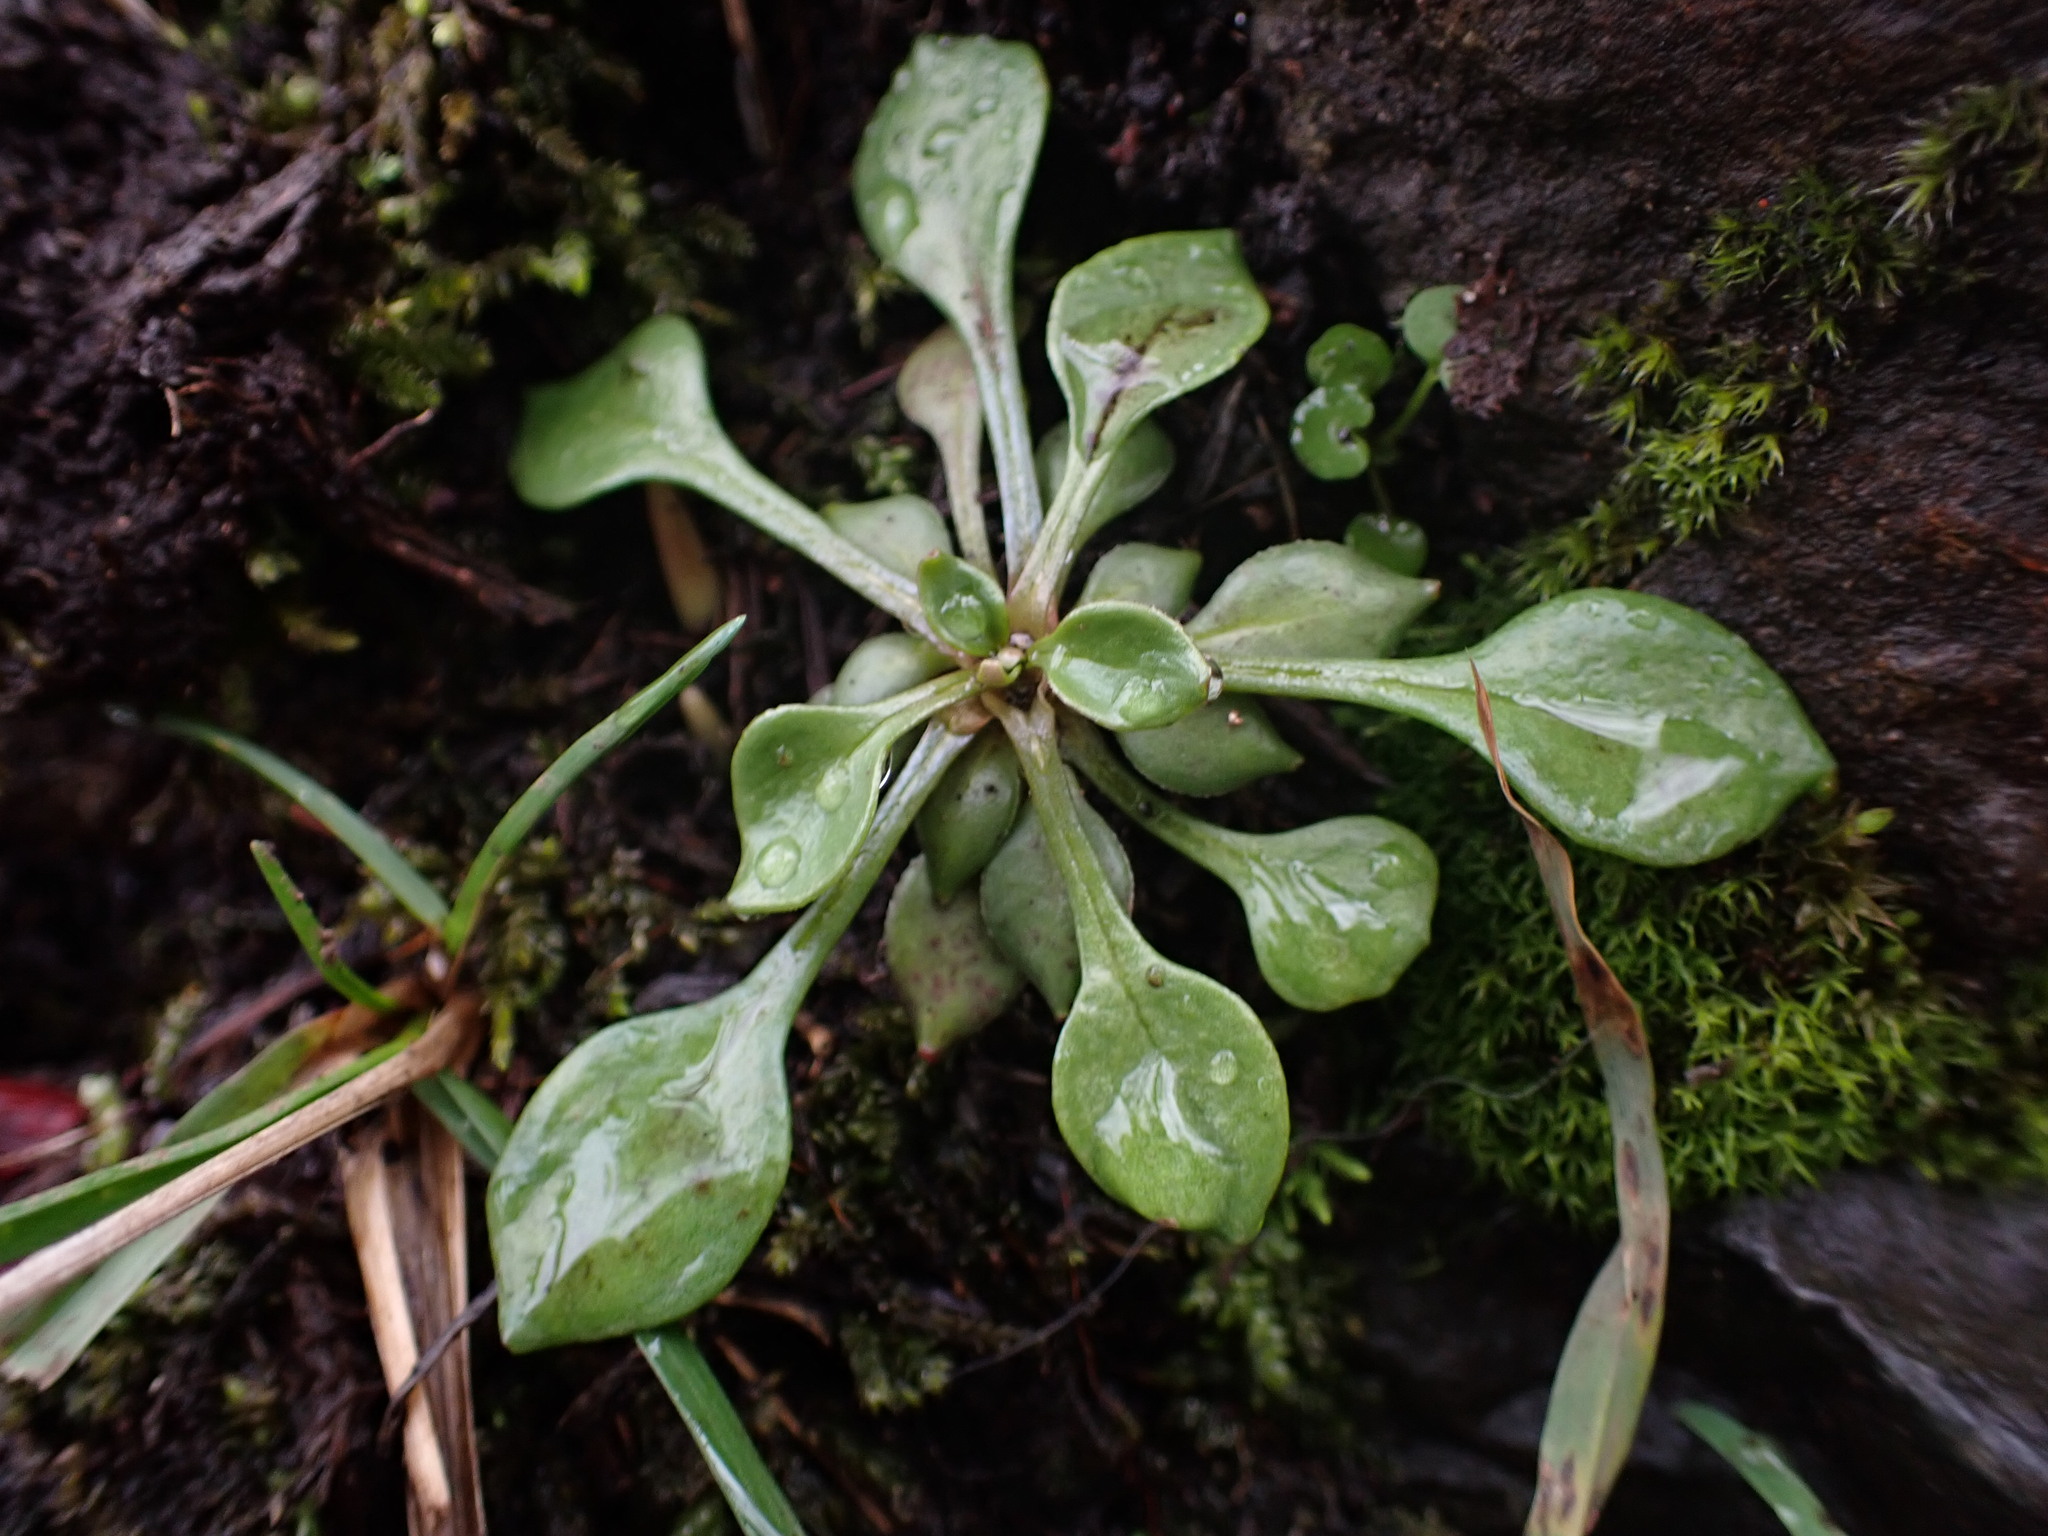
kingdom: Plantae
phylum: Tracheophyta
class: Magnoliopsida
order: Caryophyllales
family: Montiaceae
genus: Montia
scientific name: Montia parvifolia
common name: Small-leaved blinks
